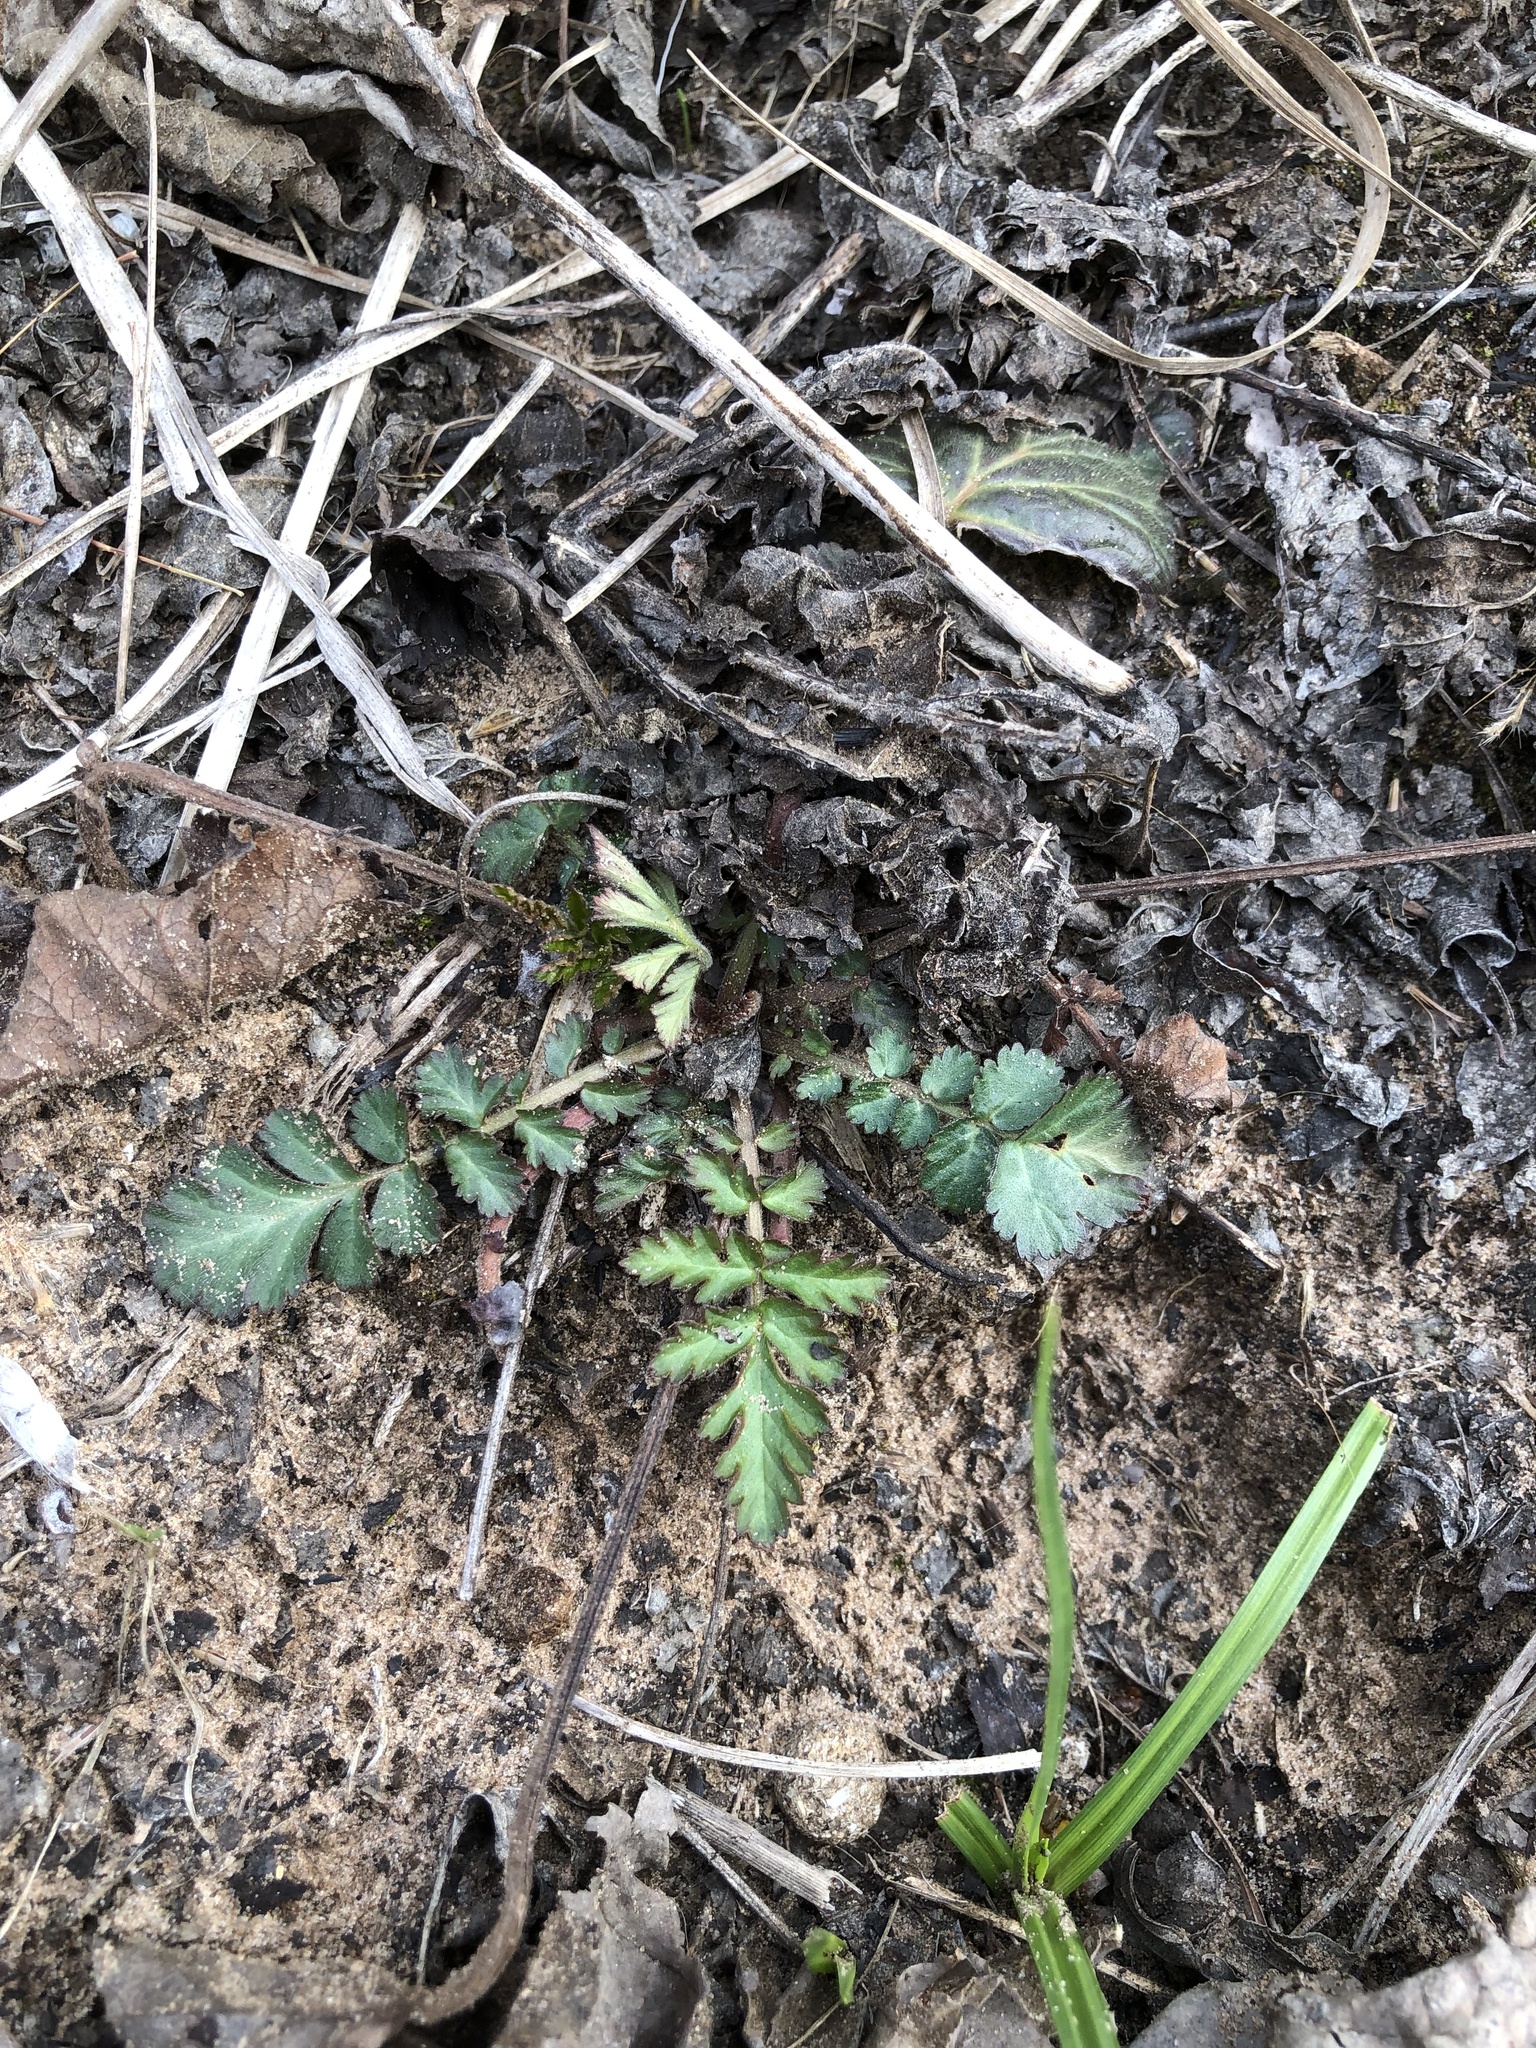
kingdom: Plantae
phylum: Tracheophyta
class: Magnoliopsida
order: Rosales
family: Rosaceae
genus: Geum
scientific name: Geum canadense
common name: White avens
